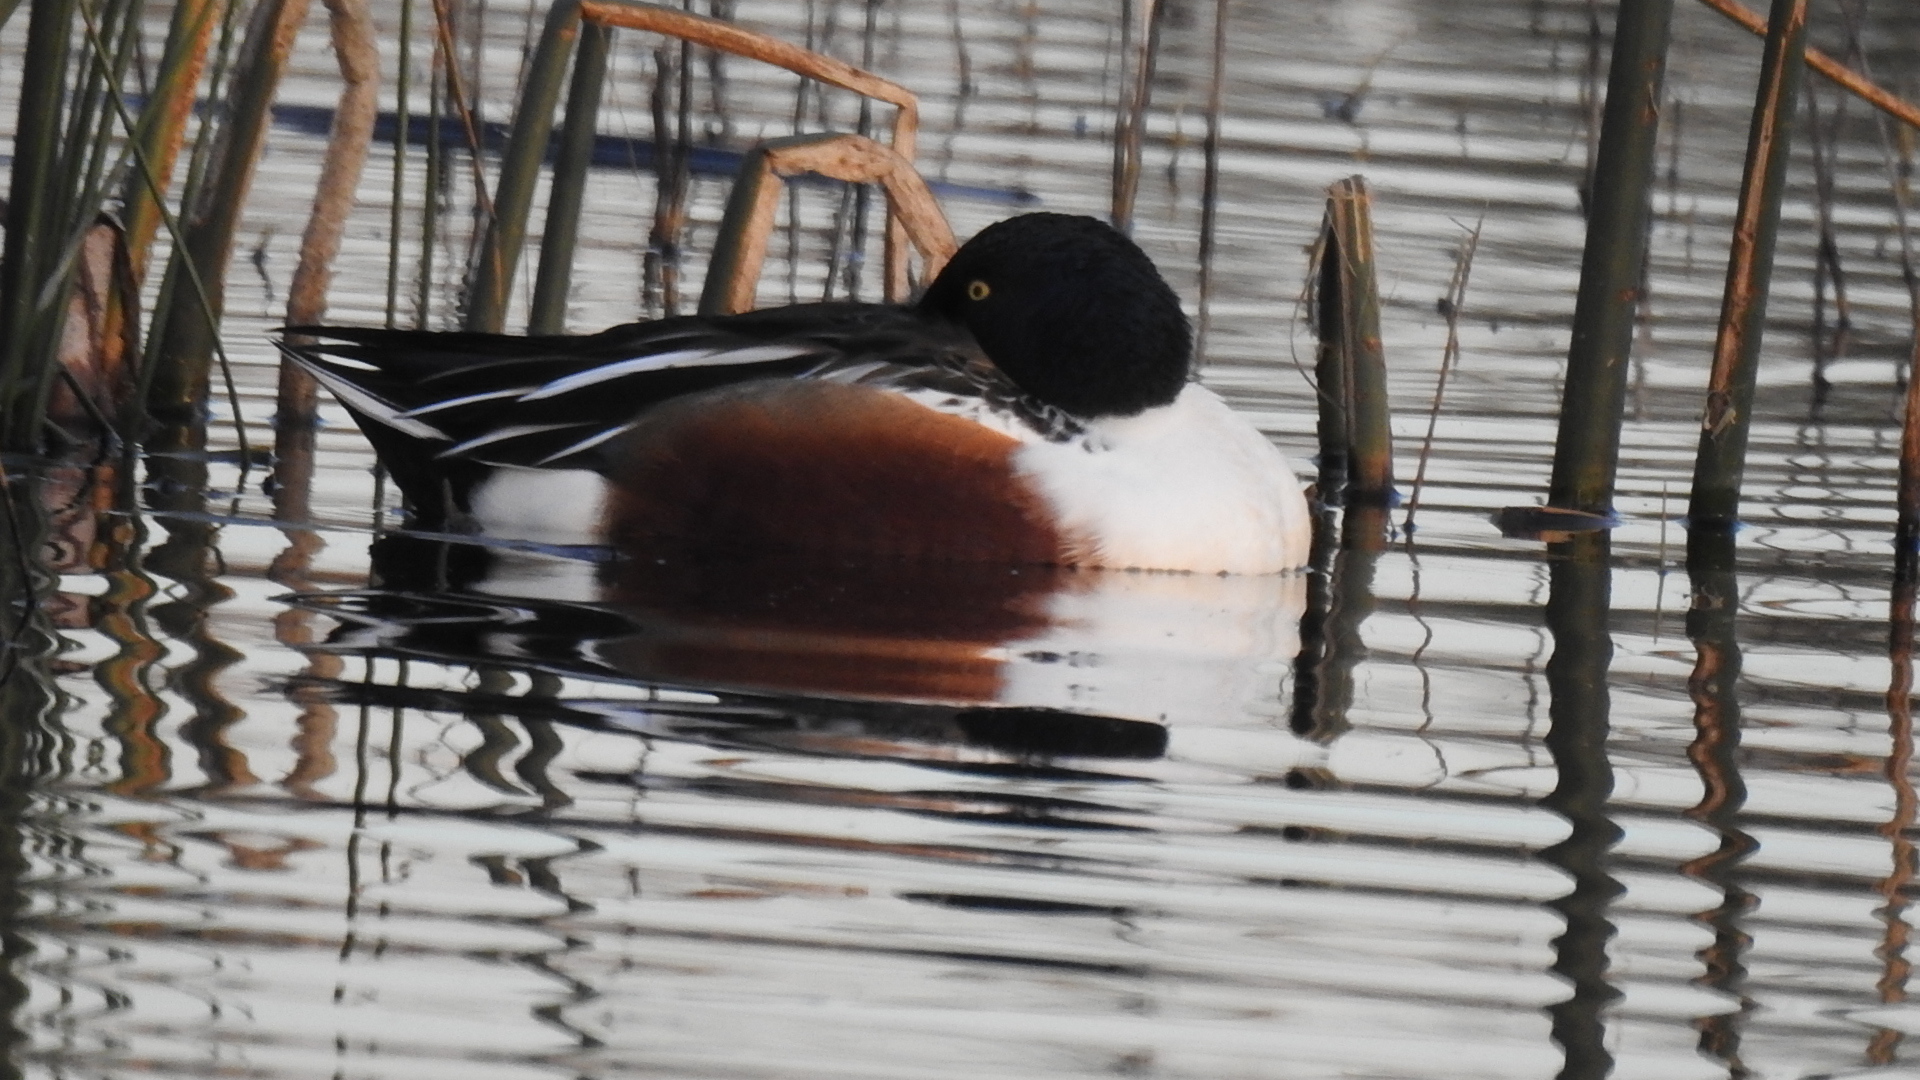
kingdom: Animalia
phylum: Chordata
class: Aves
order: Anseriformes
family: Anatidae
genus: Spatula
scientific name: Spatula clypeata
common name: Northern shoveler
